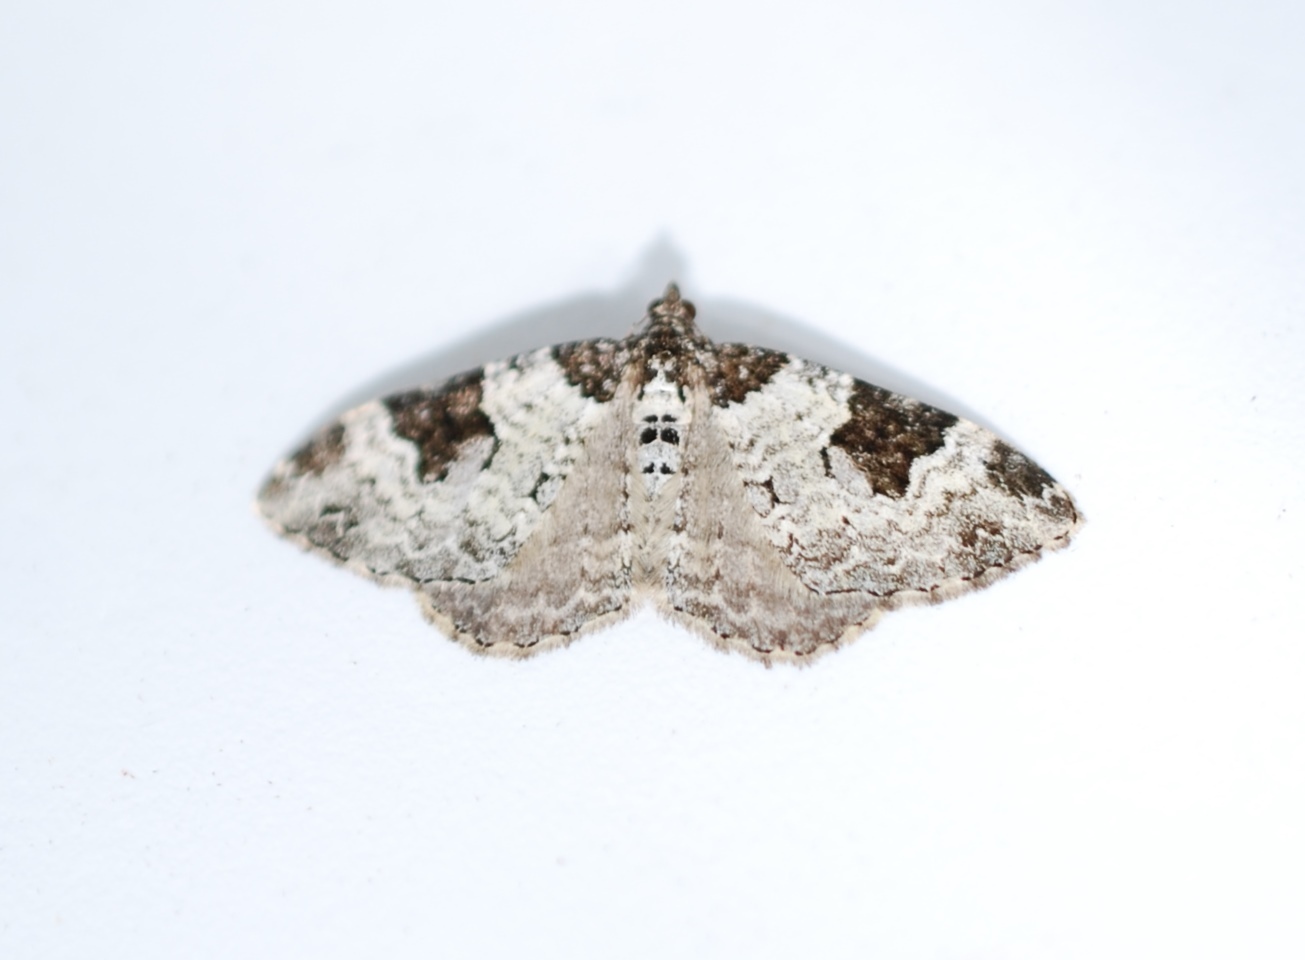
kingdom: Animalia
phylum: Arthropoda
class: Insecta
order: Lepidoptera
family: Geometridae
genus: Xanthorhoe
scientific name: Xanthorhoe fluctuata
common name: Garden carpet
